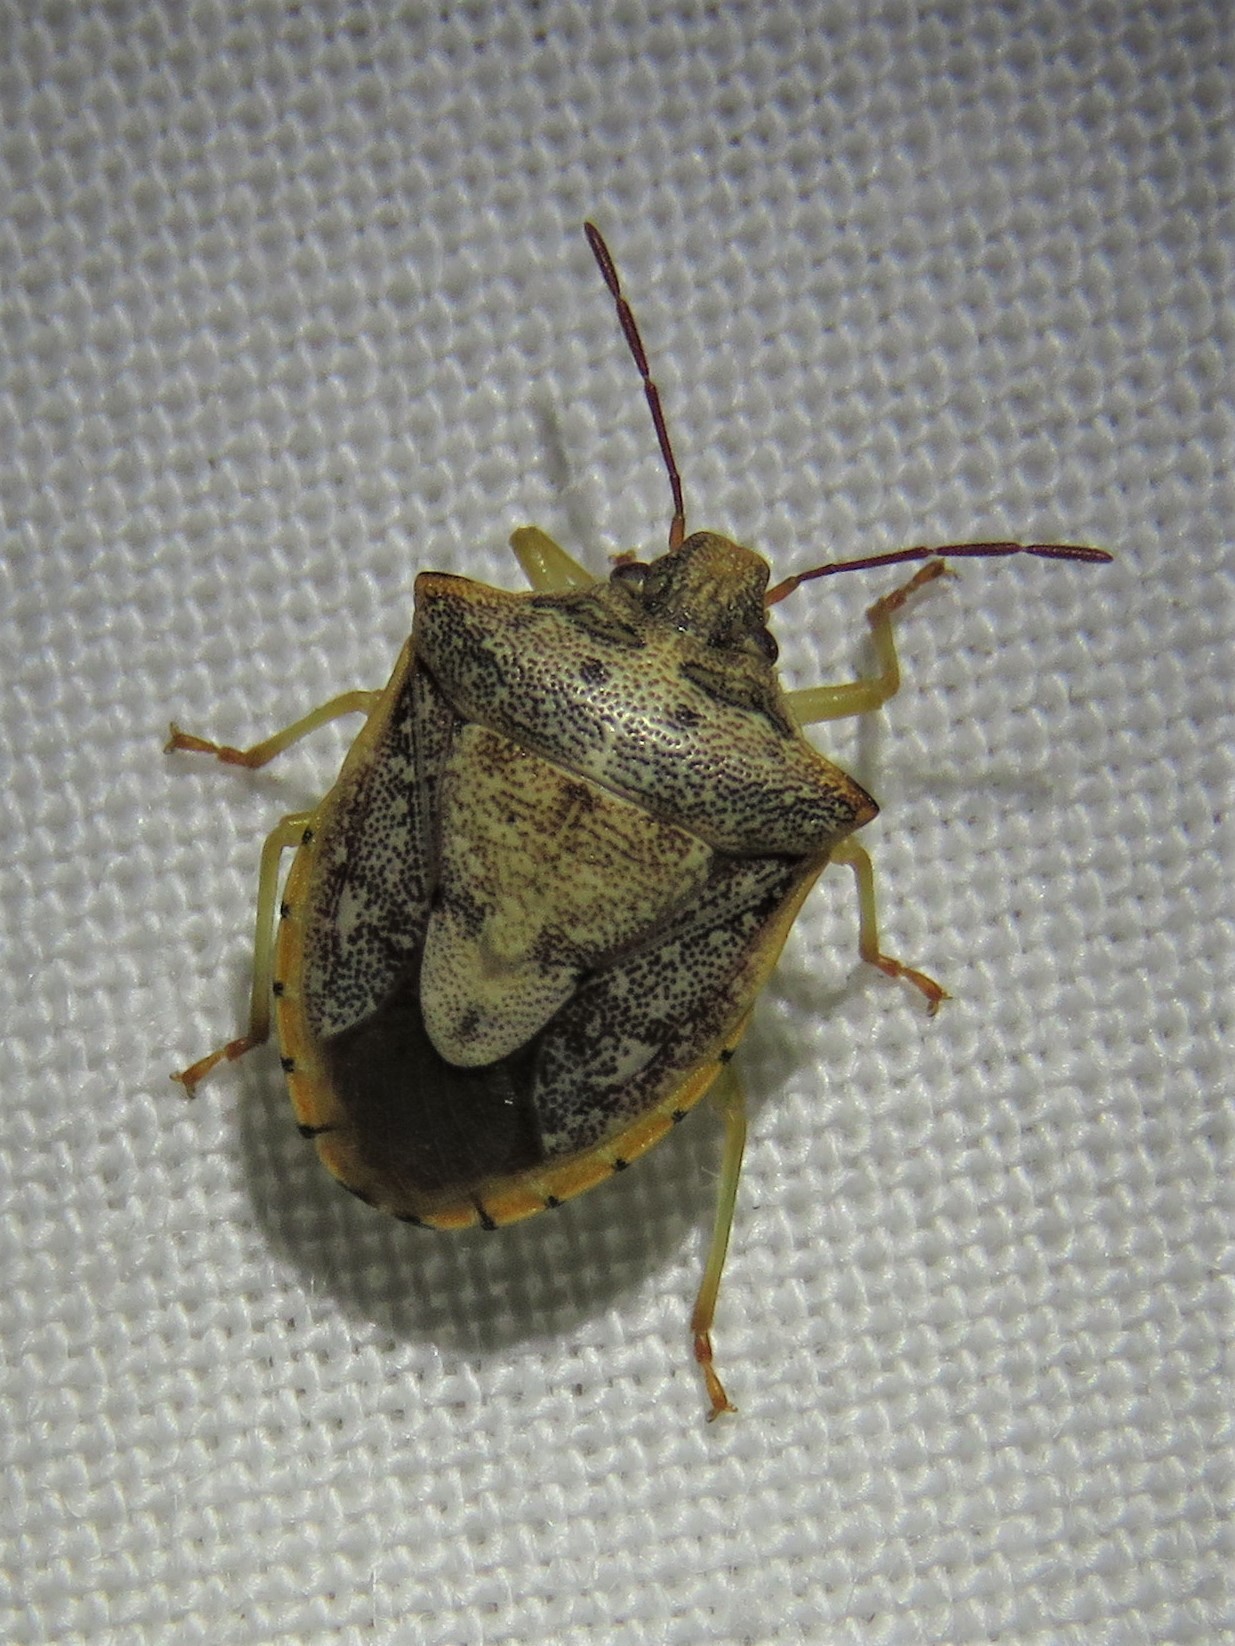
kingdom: Animalia
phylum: Arthropoda
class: Insecta
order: Hemiptera
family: Pentatomidae
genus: Dendrocoris
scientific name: Dendrocoris humeralis
